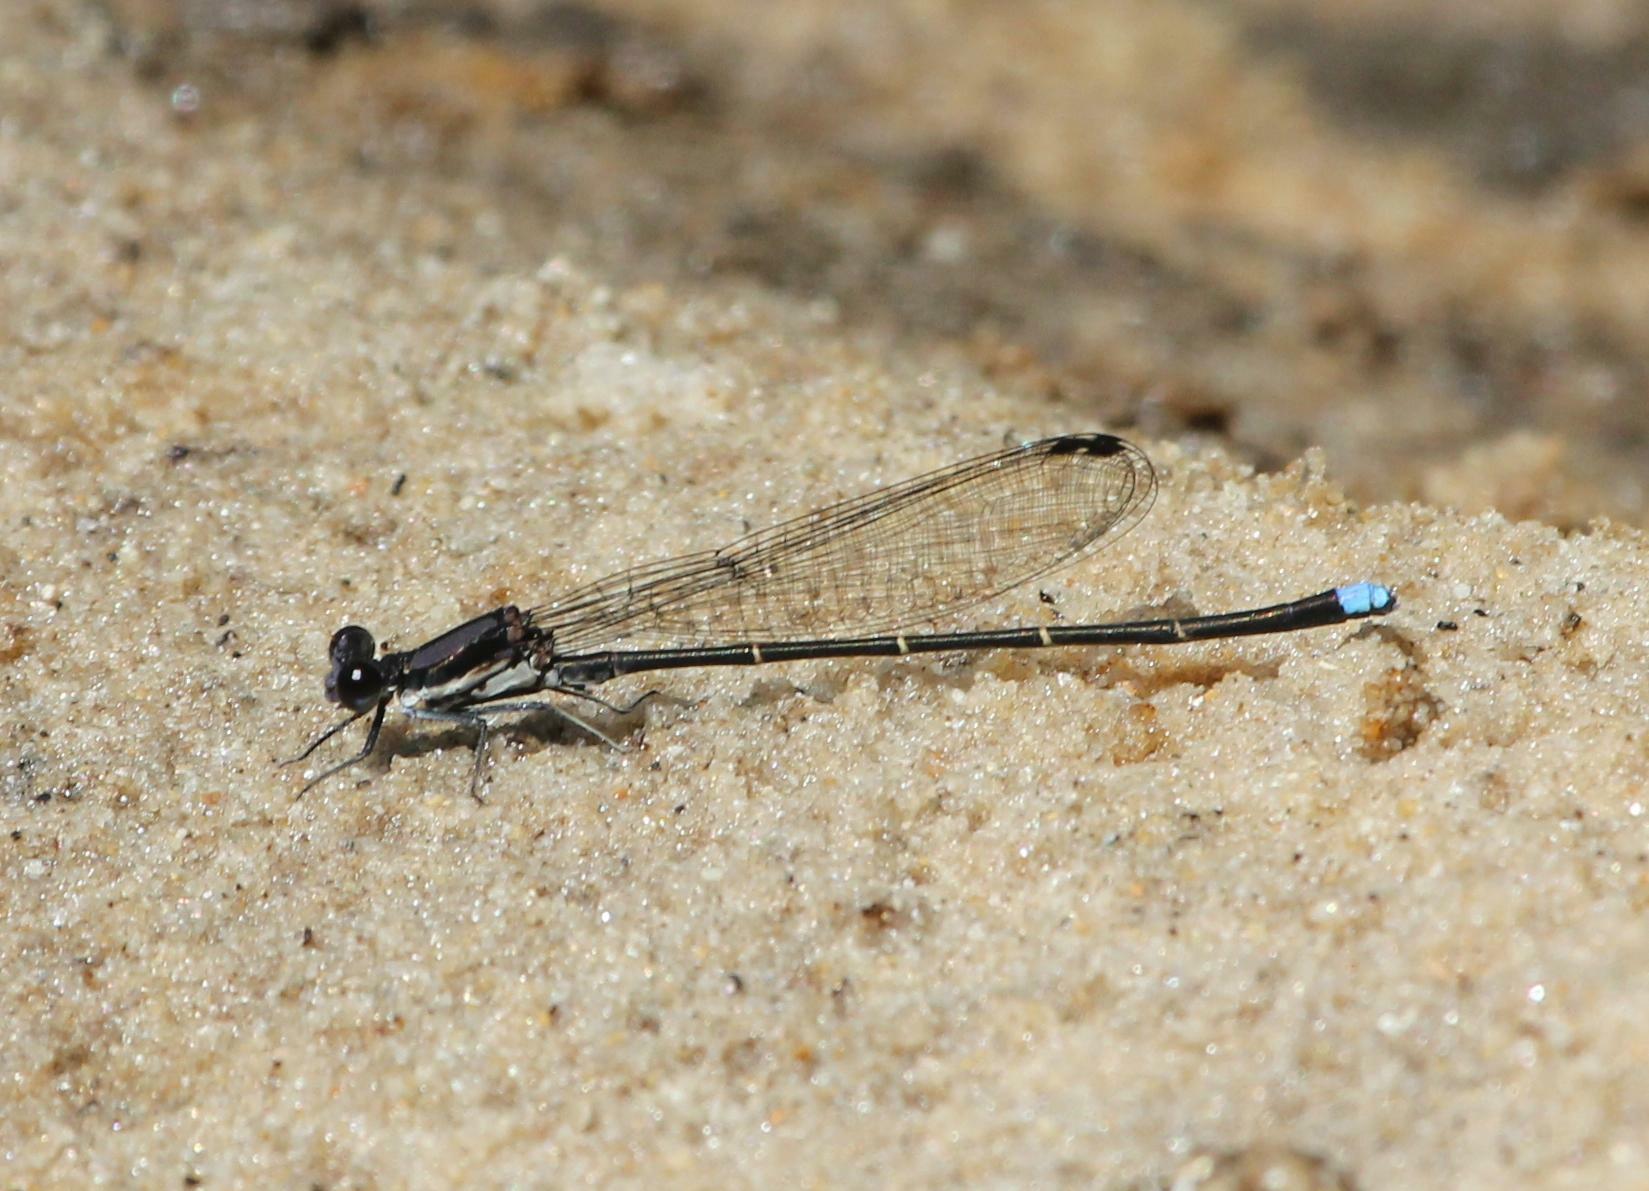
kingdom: Animalia
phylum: Arthropoda
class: Insecta
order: Odonata
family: Coenagrionidae
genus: Argia
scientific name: Argia tibialis
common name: Blue-tipped dancer
